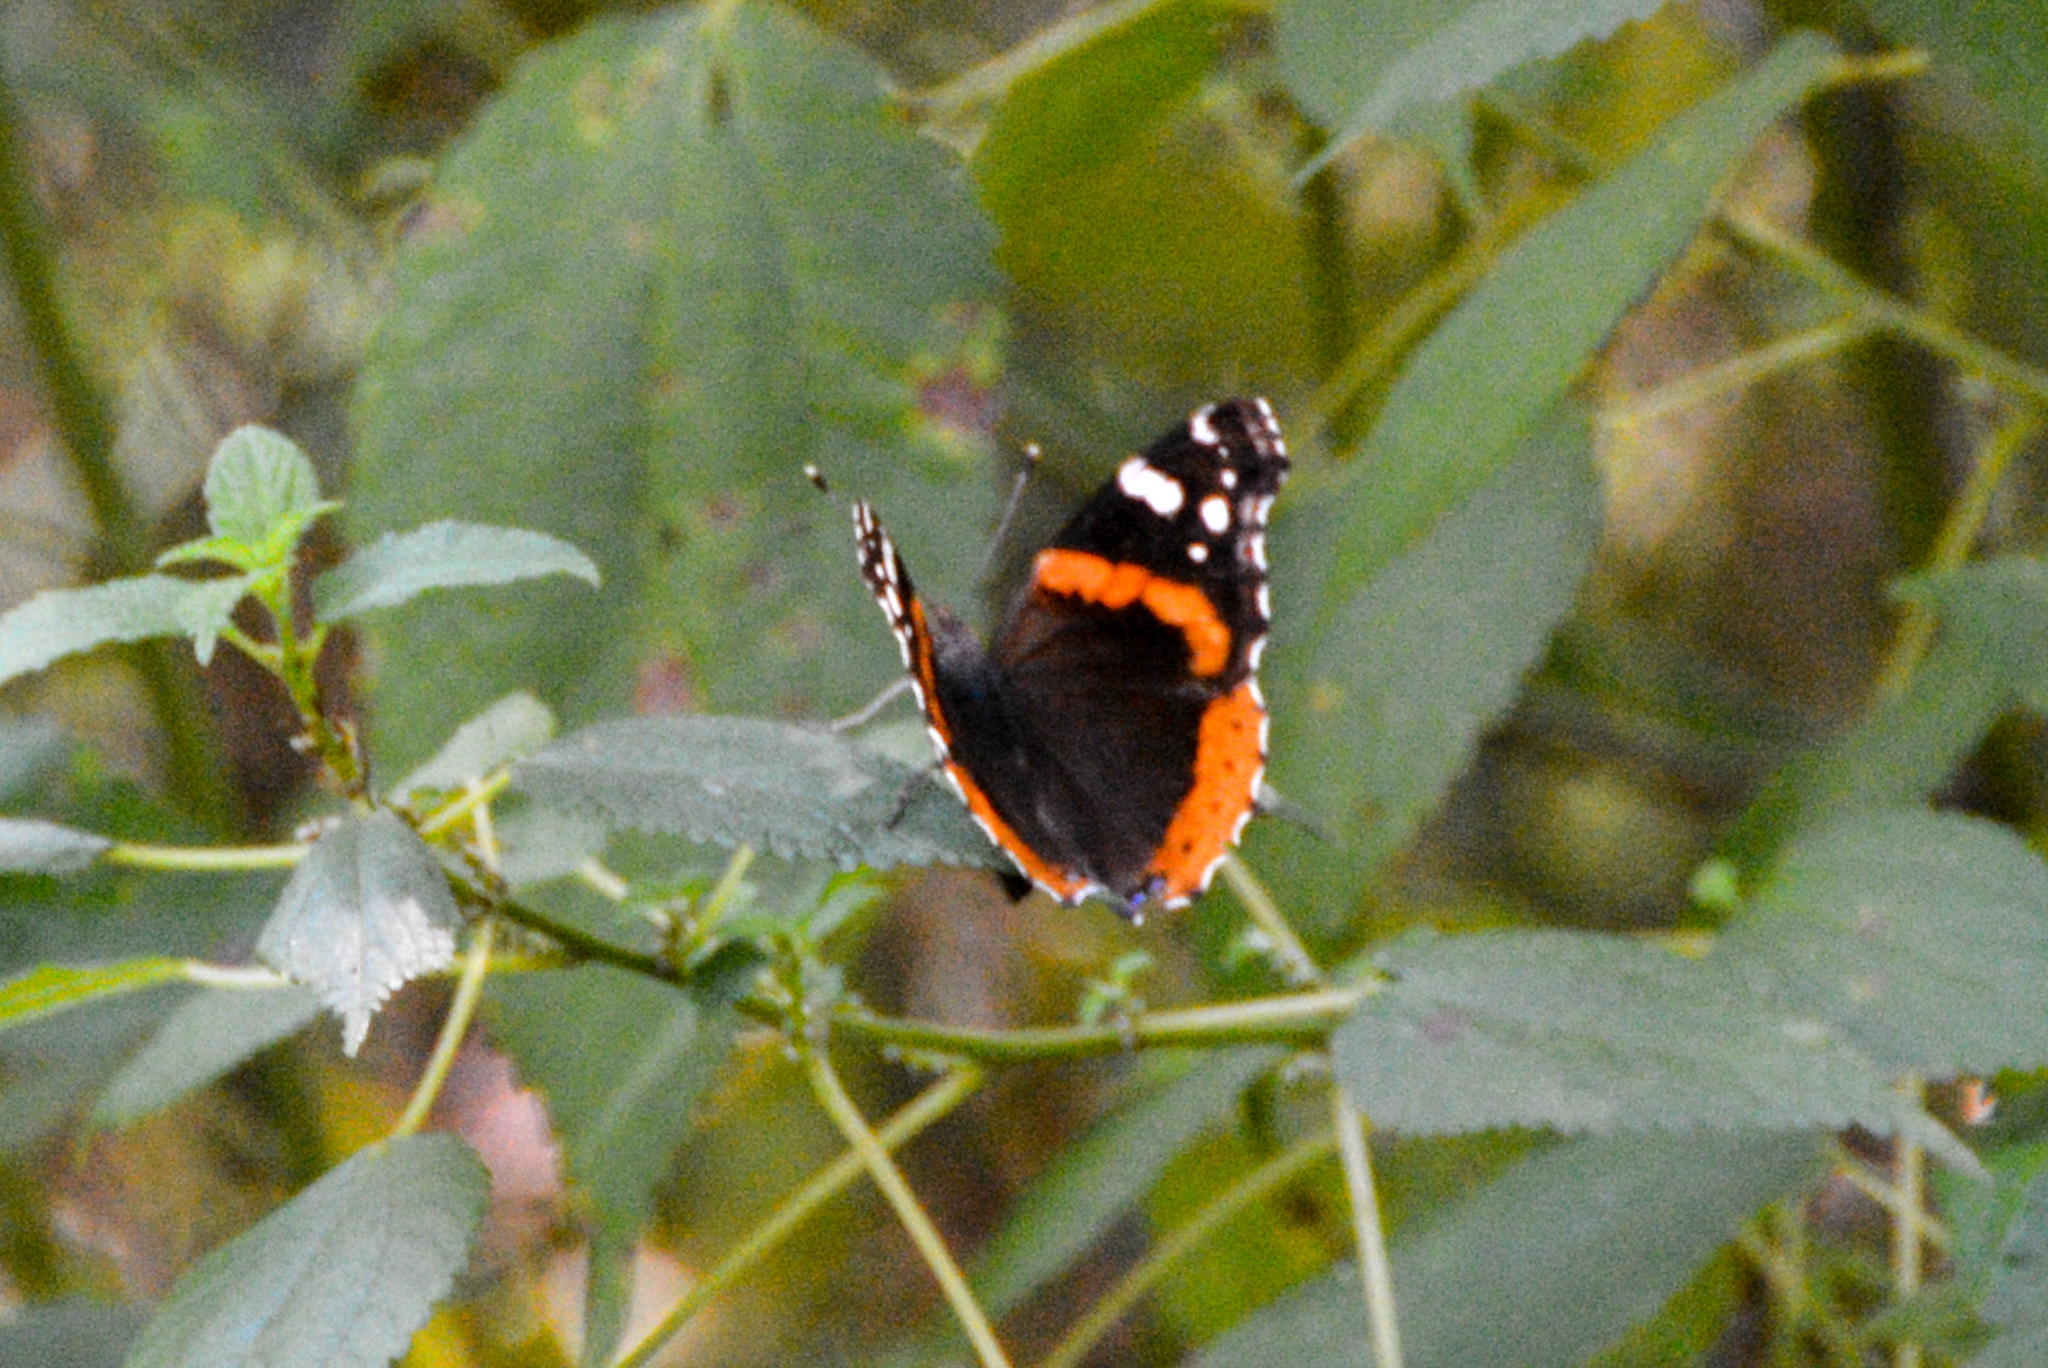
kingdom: Animalia
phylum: Arthropoda
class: Insecta
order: Lepidoptera
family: Nymphalidae
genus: Vanessa
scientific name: Vanessa atalanta
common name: Red admiral
